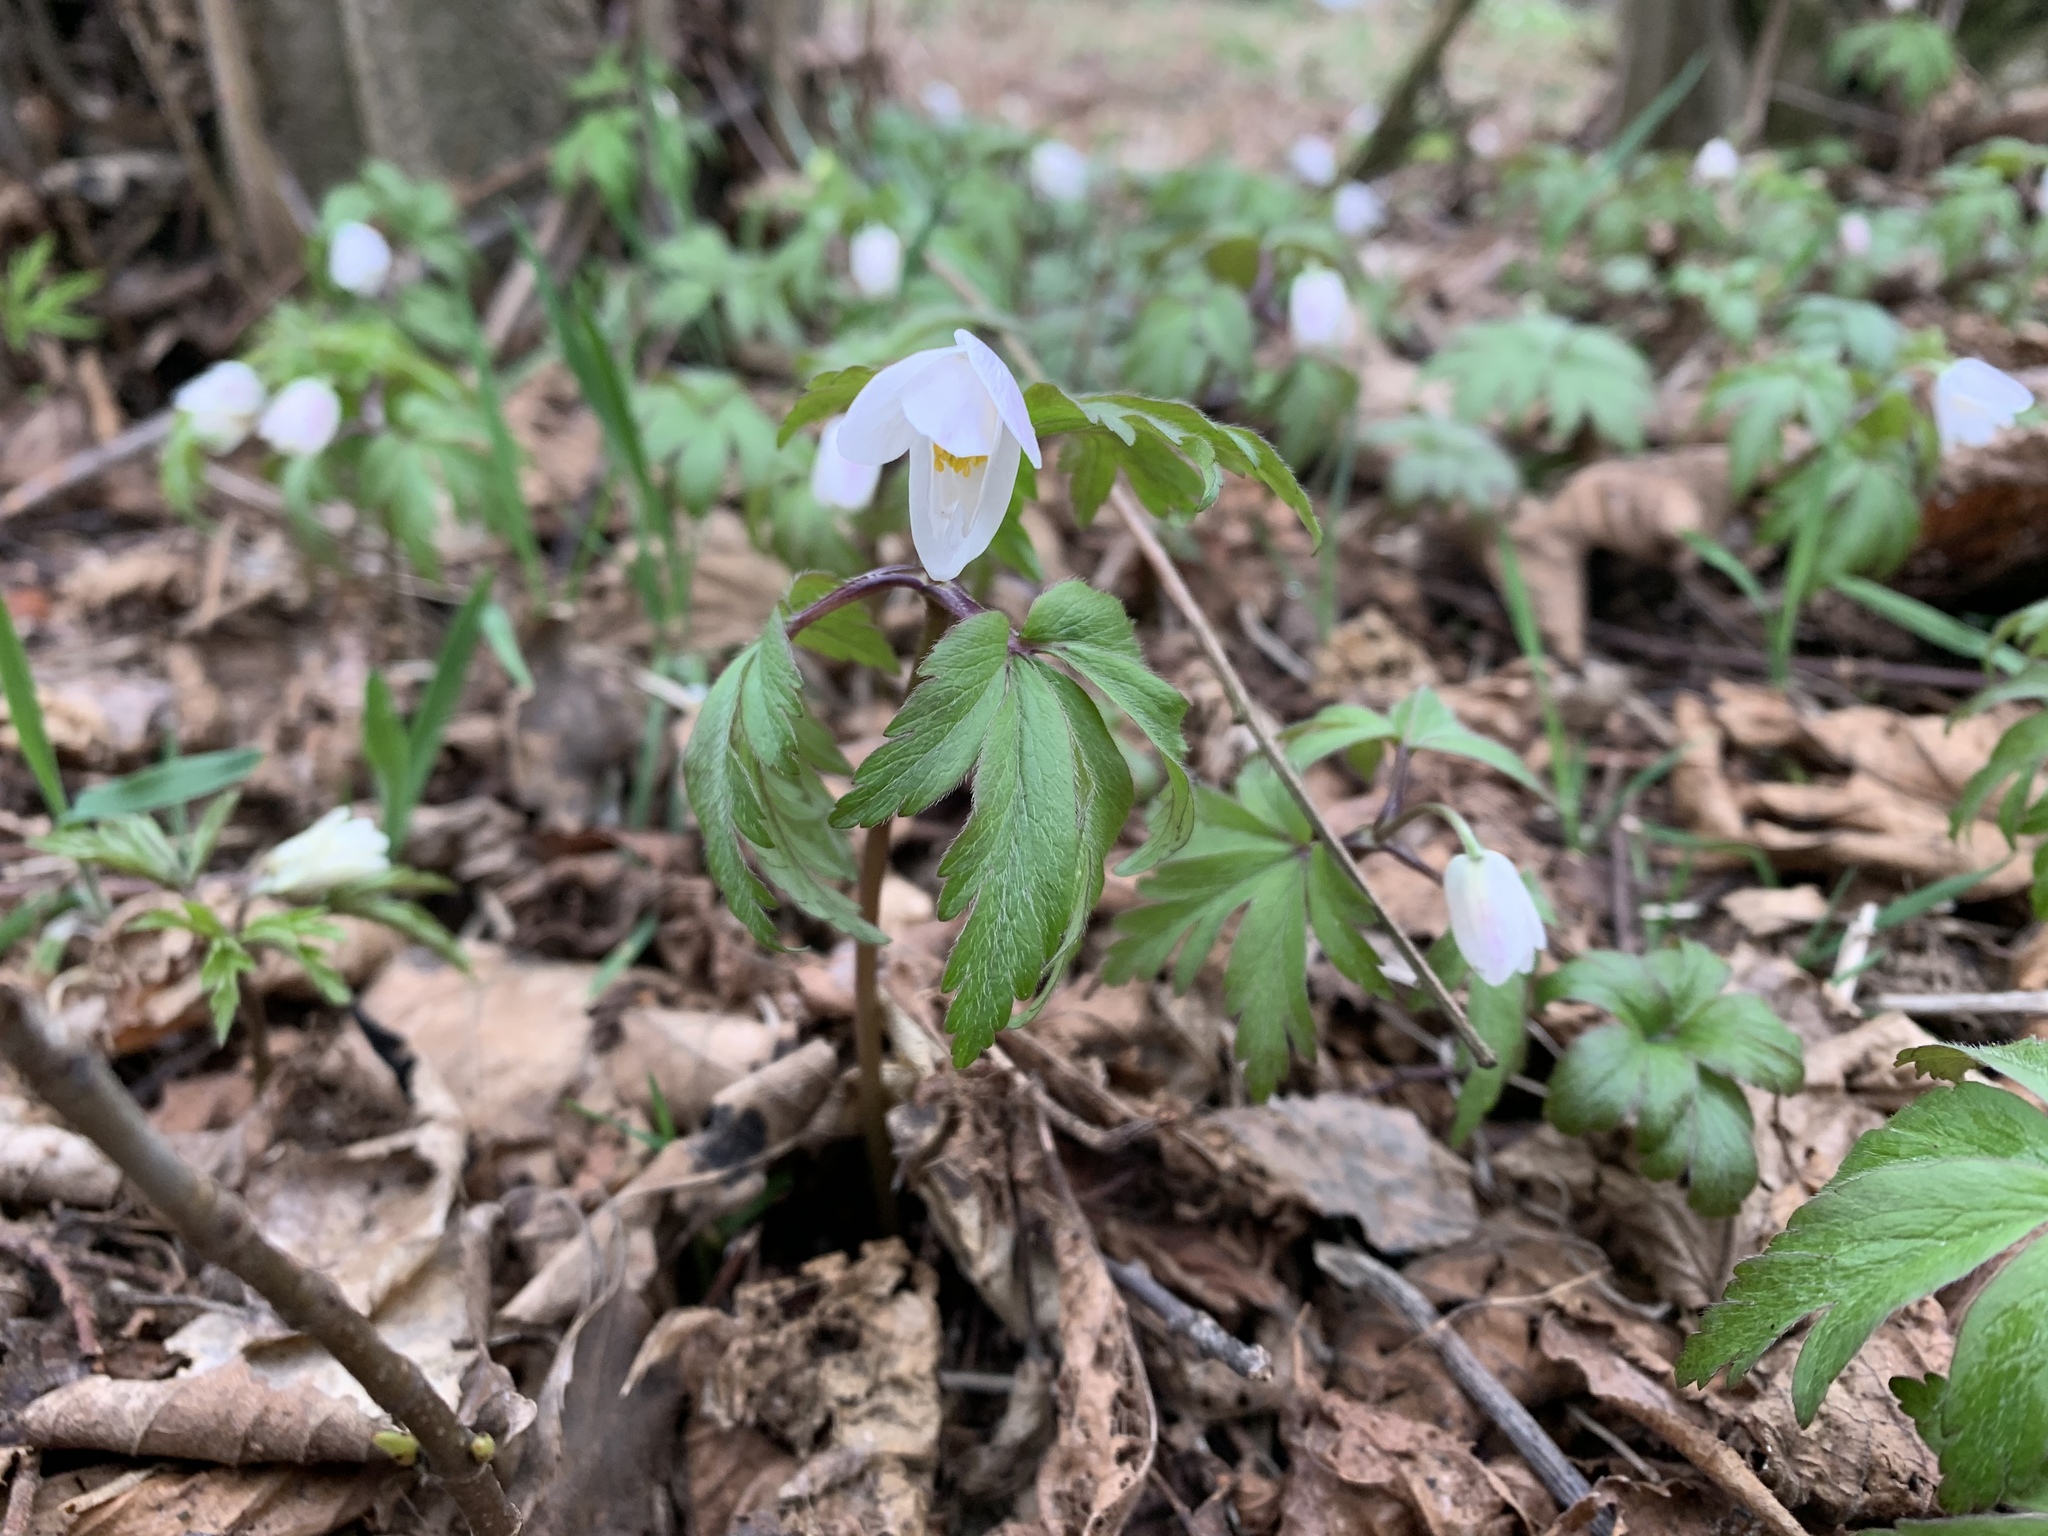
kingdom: Plantae
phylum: Tracheophyta
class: Magnoliopsida
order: Ranunculales
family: Ranunculaceae
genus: Anemone
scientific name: Anemone nemorosa
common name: Wood anemone
